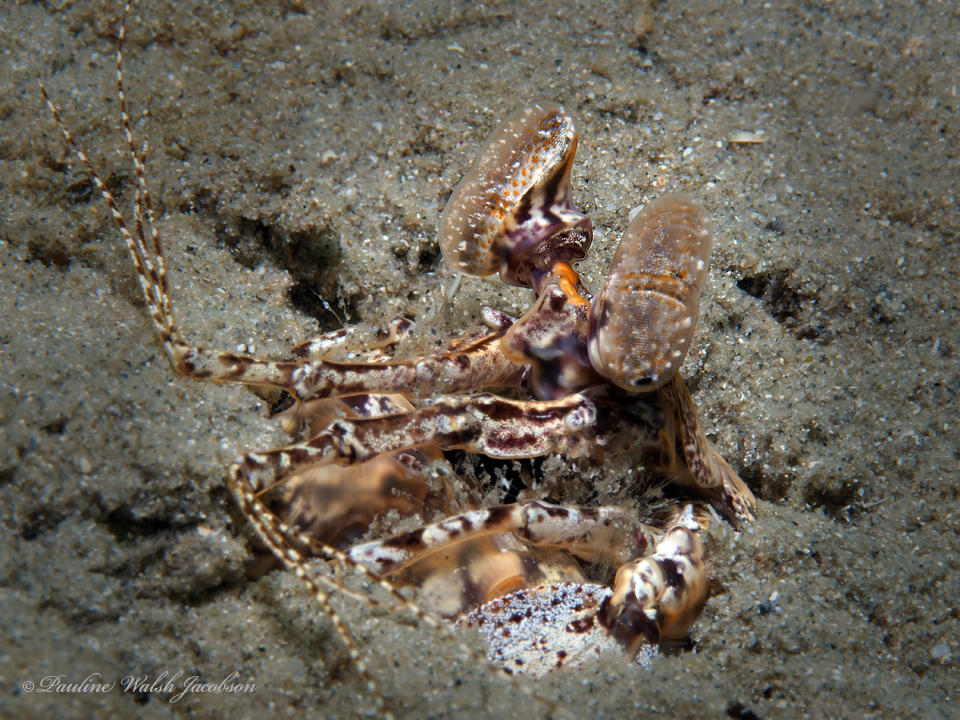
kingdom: Animalia
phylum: Arthropoda
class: Malacostraca
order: Stomatopoda
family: Lysiosquillidae
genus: Lysiosquilla
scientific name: Lysiosquilla scabricauda
